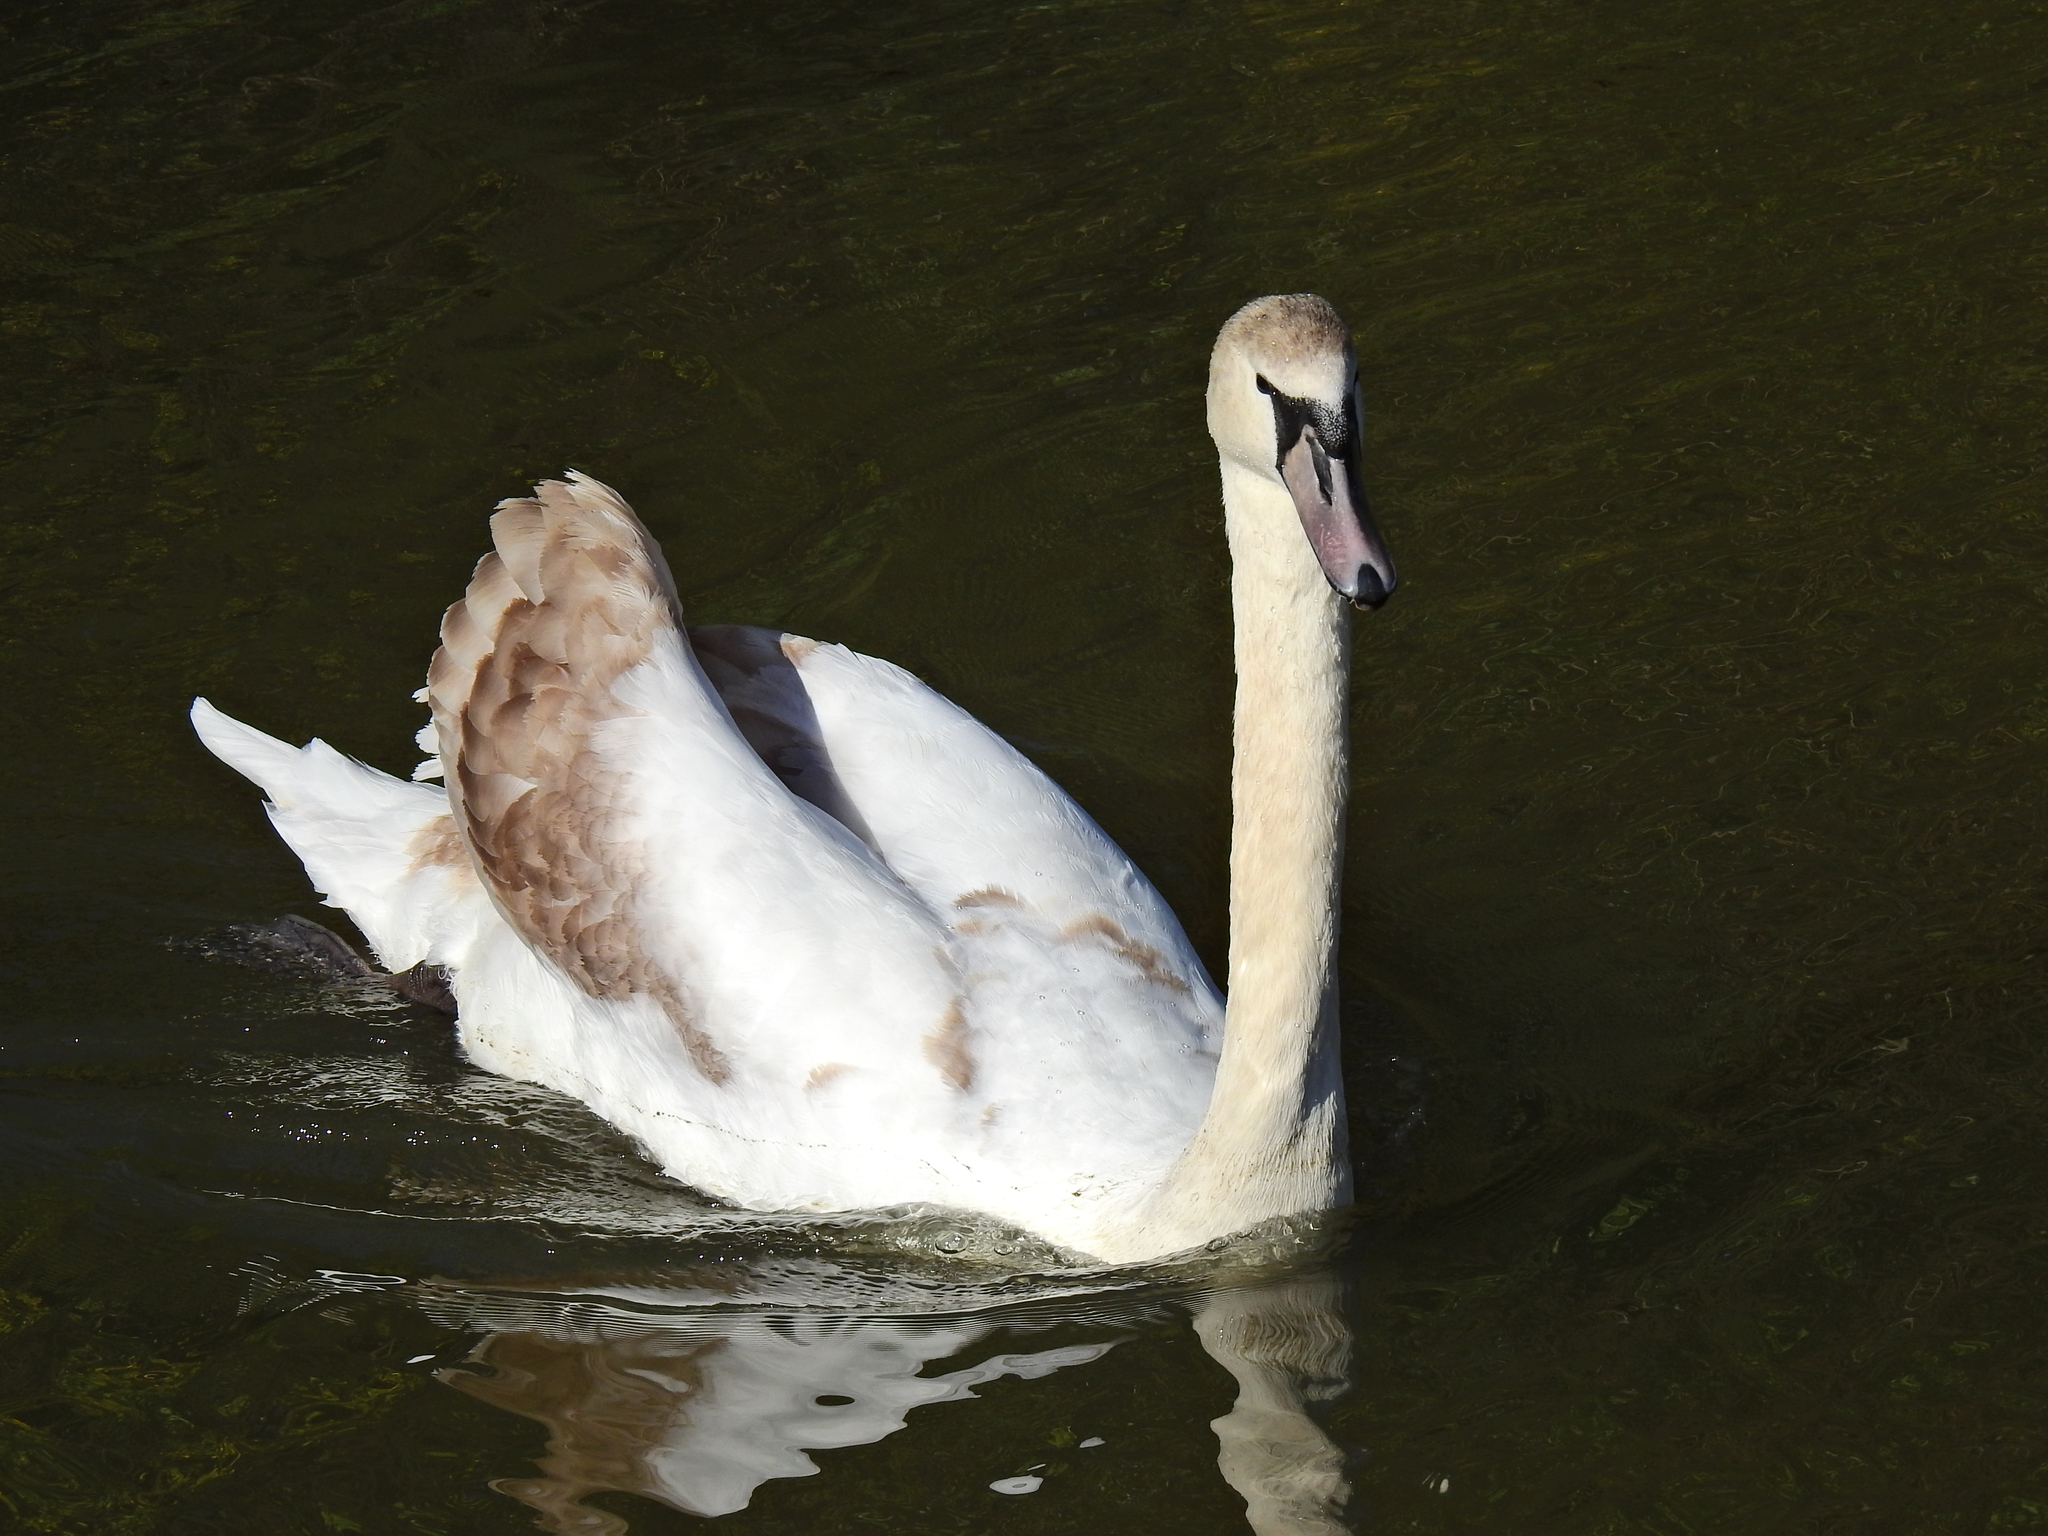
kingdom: Animalia
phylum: Chordata
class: Aves
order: Anseriformes
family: Anatidae
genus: Cygnus
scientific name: Cygnus olor
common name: Mute swan
